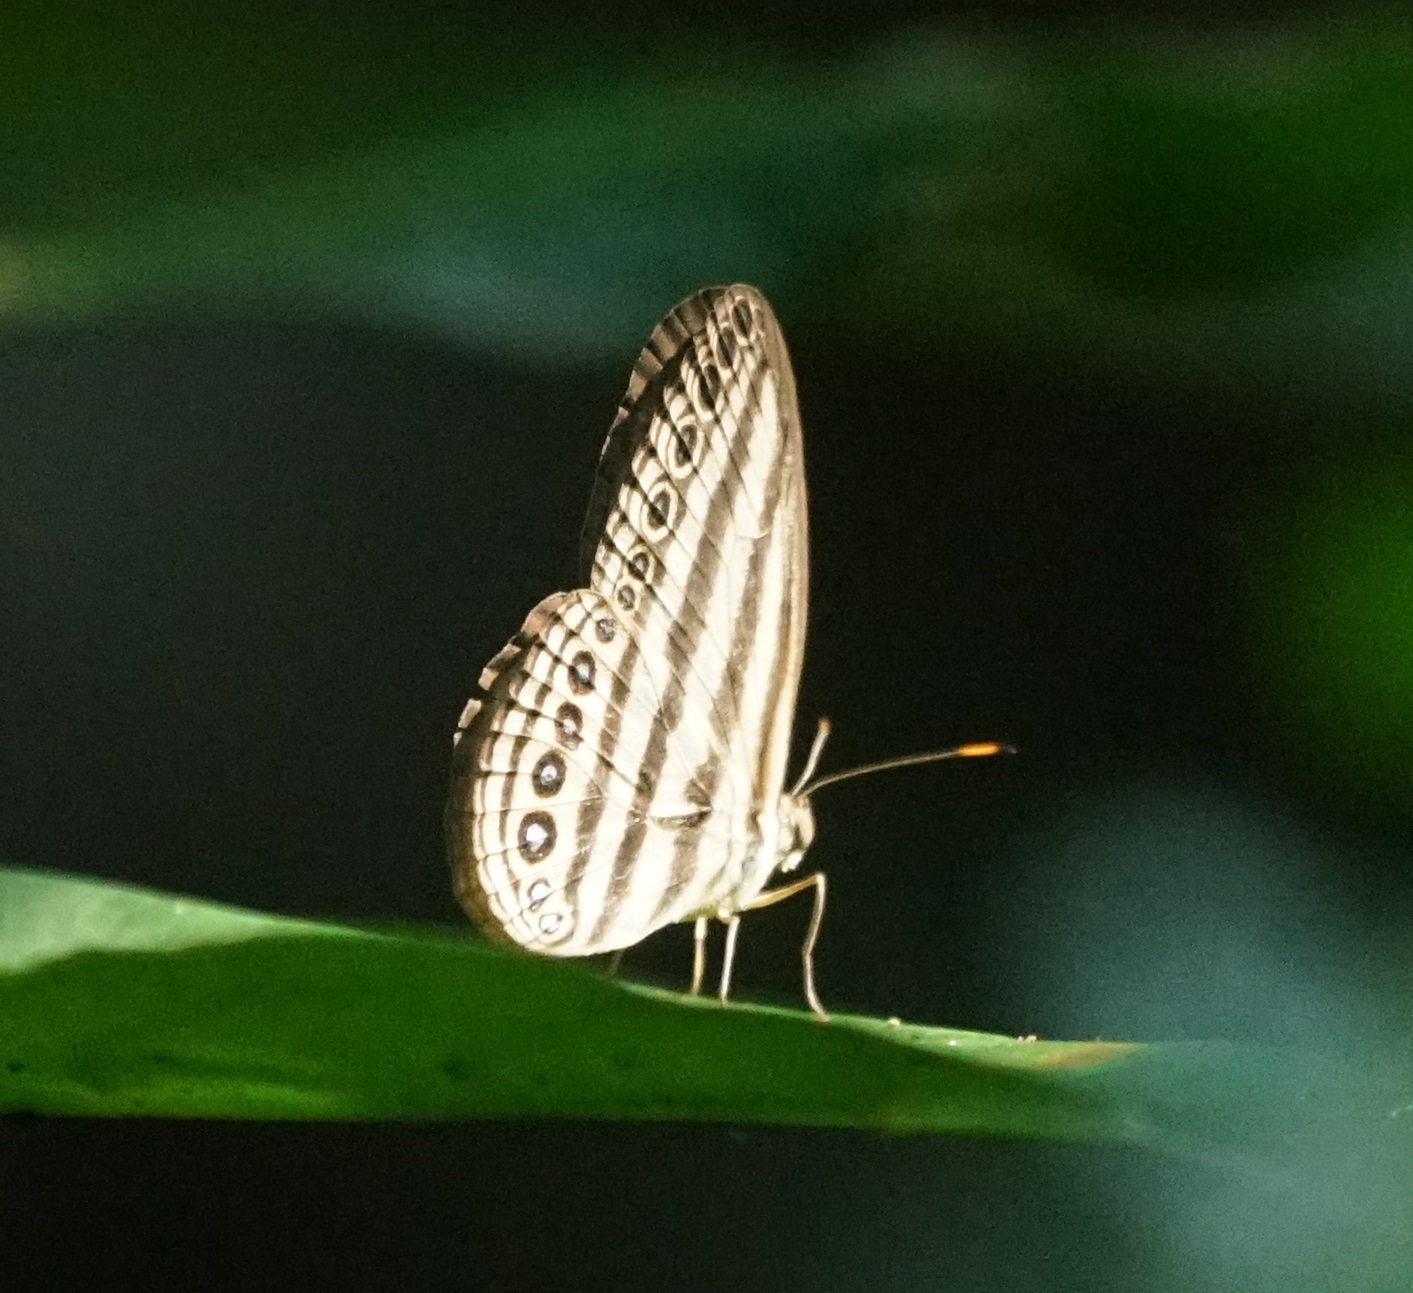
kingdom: Animalia
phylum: Arthropoda
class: Insecta
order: Lepidoptera
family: Nymphalidae
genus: Ragadia
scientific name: Ragadia makuta
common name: Striped ringlet
